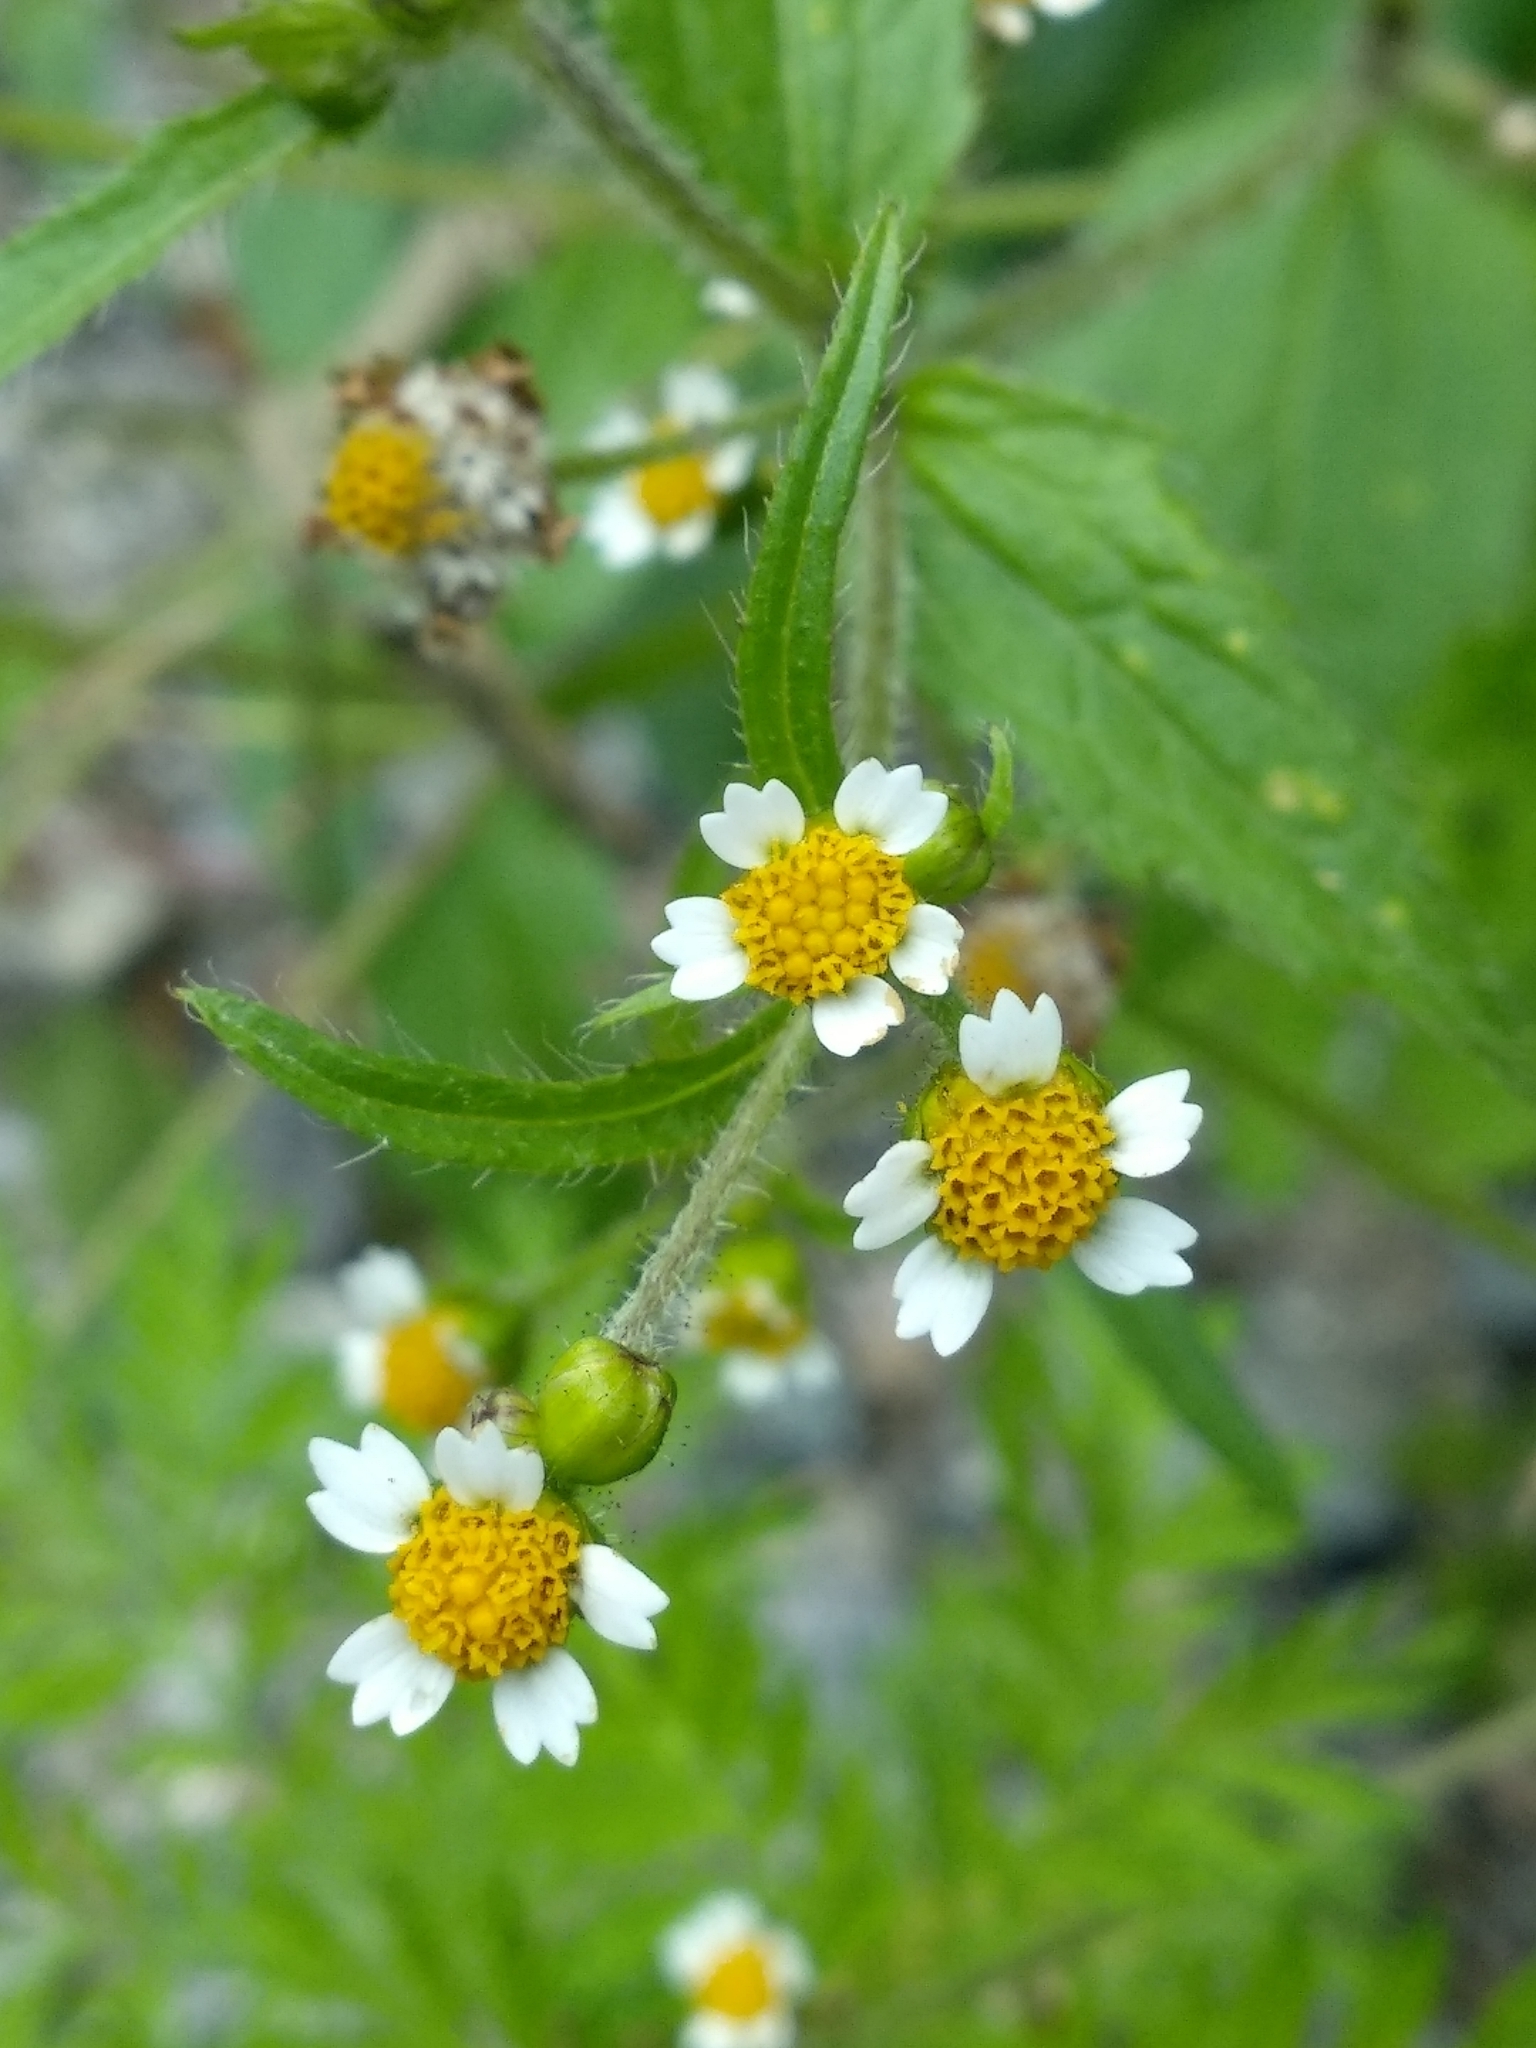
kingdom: Plantae
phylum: Tracheophyta
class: Magnoliopsida
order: Asterales
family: Asteraceae
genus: Galinsoga
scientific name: Galinsoga quadriradiata
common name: Shaggy soldier
